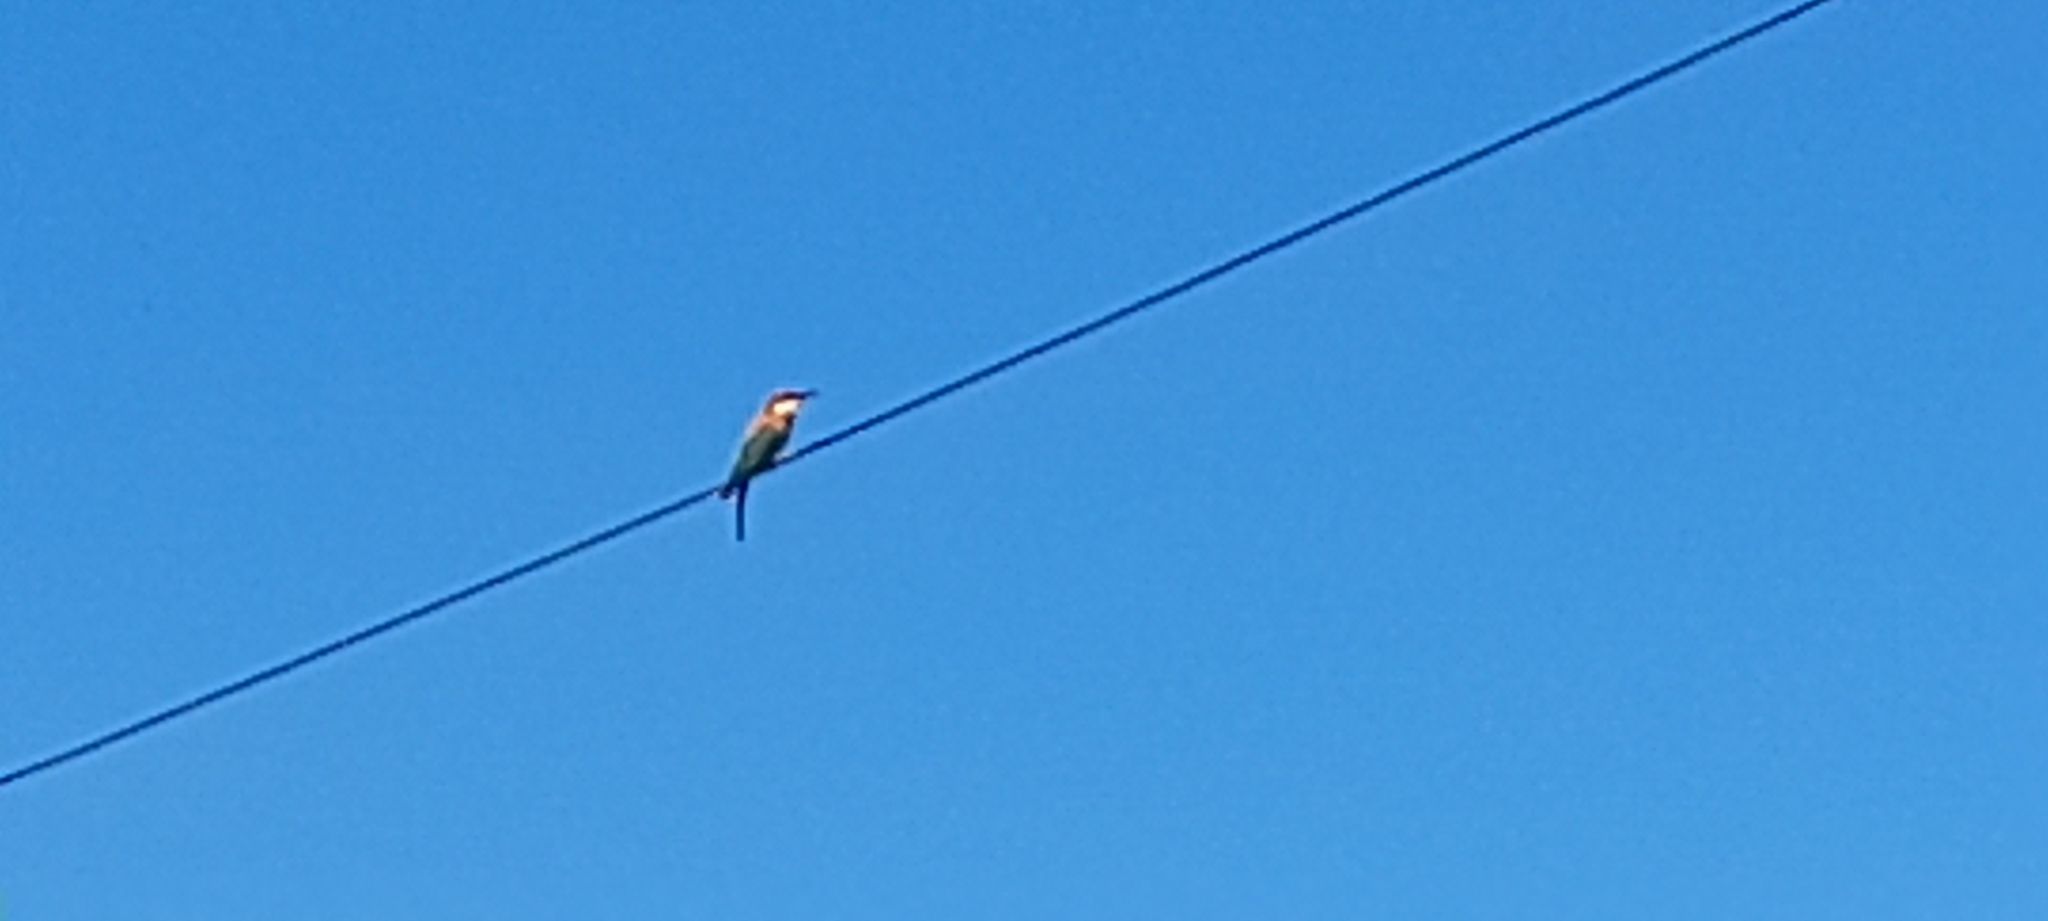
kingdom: Animalia
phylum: Chordata
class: Aves
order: Coraciiformes
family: Meropidae
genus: Merops
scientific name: Merops leschenaulti
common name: Chestnut-headed bee-eater
